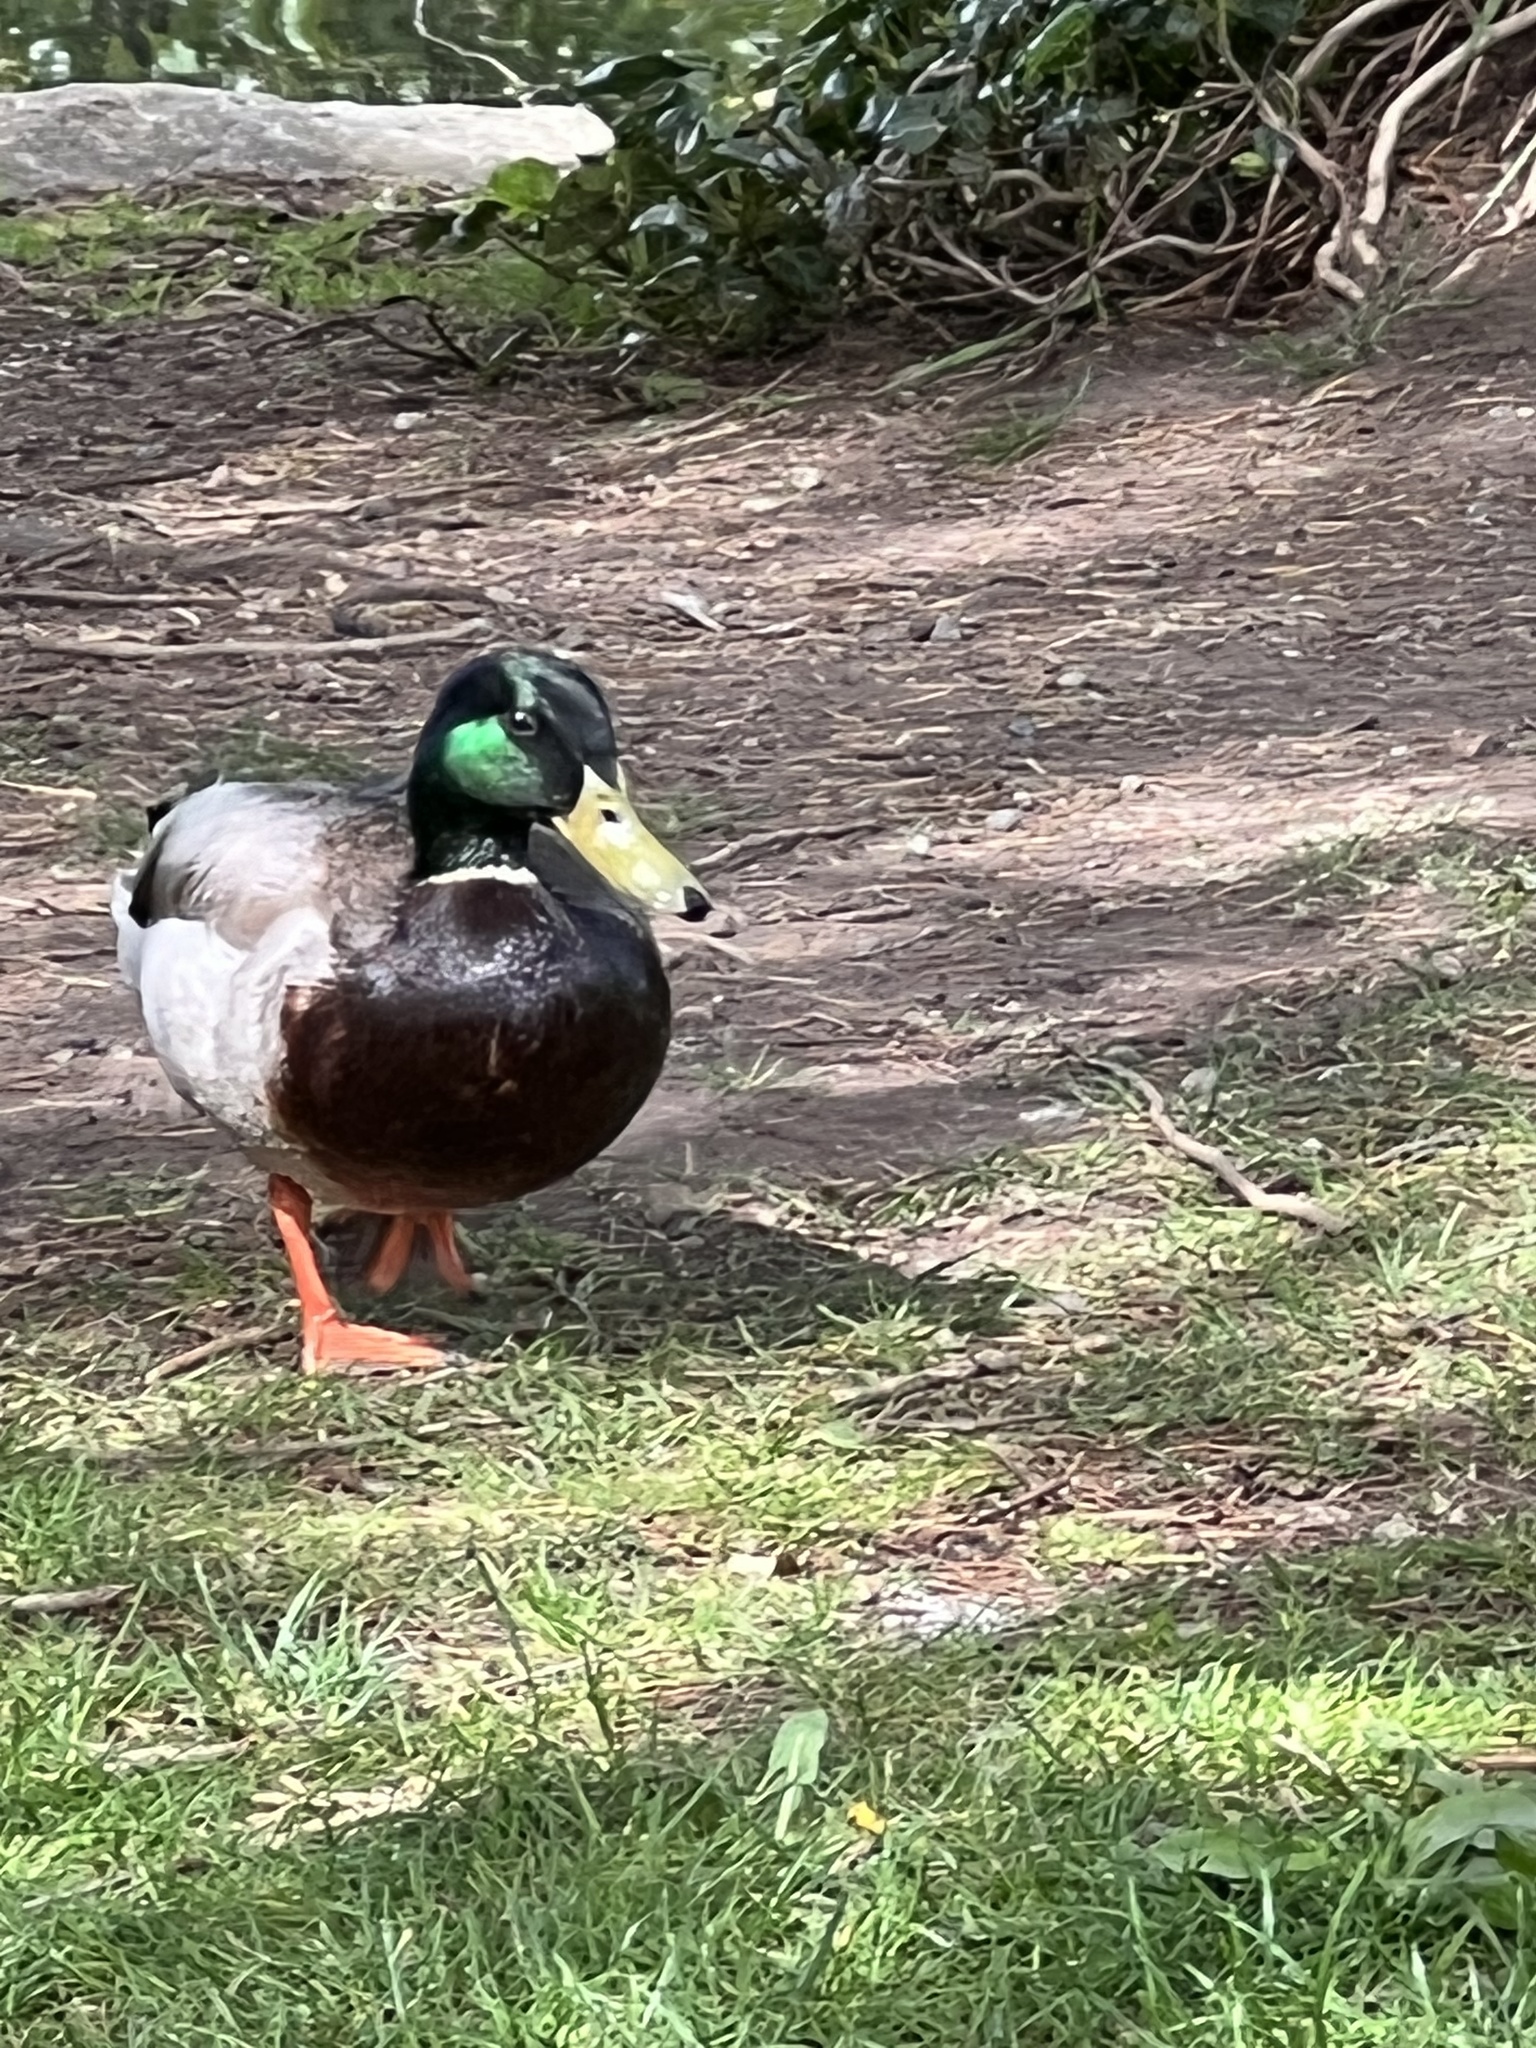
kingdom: Animalia
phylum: Chordata
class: Aves
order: Anseriformes
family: Anatidae
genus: Anas
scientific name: Anas platyrhynchos
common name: Mallard
